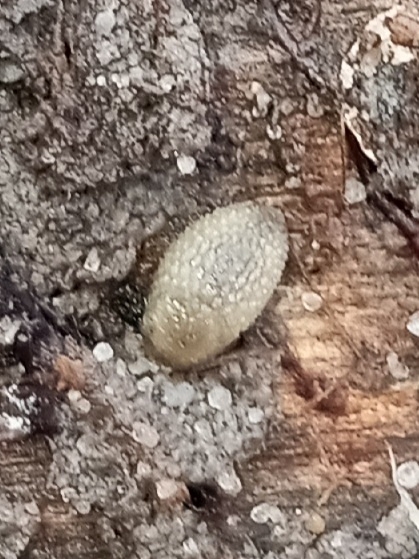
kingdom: Animalia
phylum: Mollusca
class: Gastropoda
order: Stylommatophora
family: Arionidae
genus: Arion
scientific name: Arion intermedius
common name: Hedgehog slug
